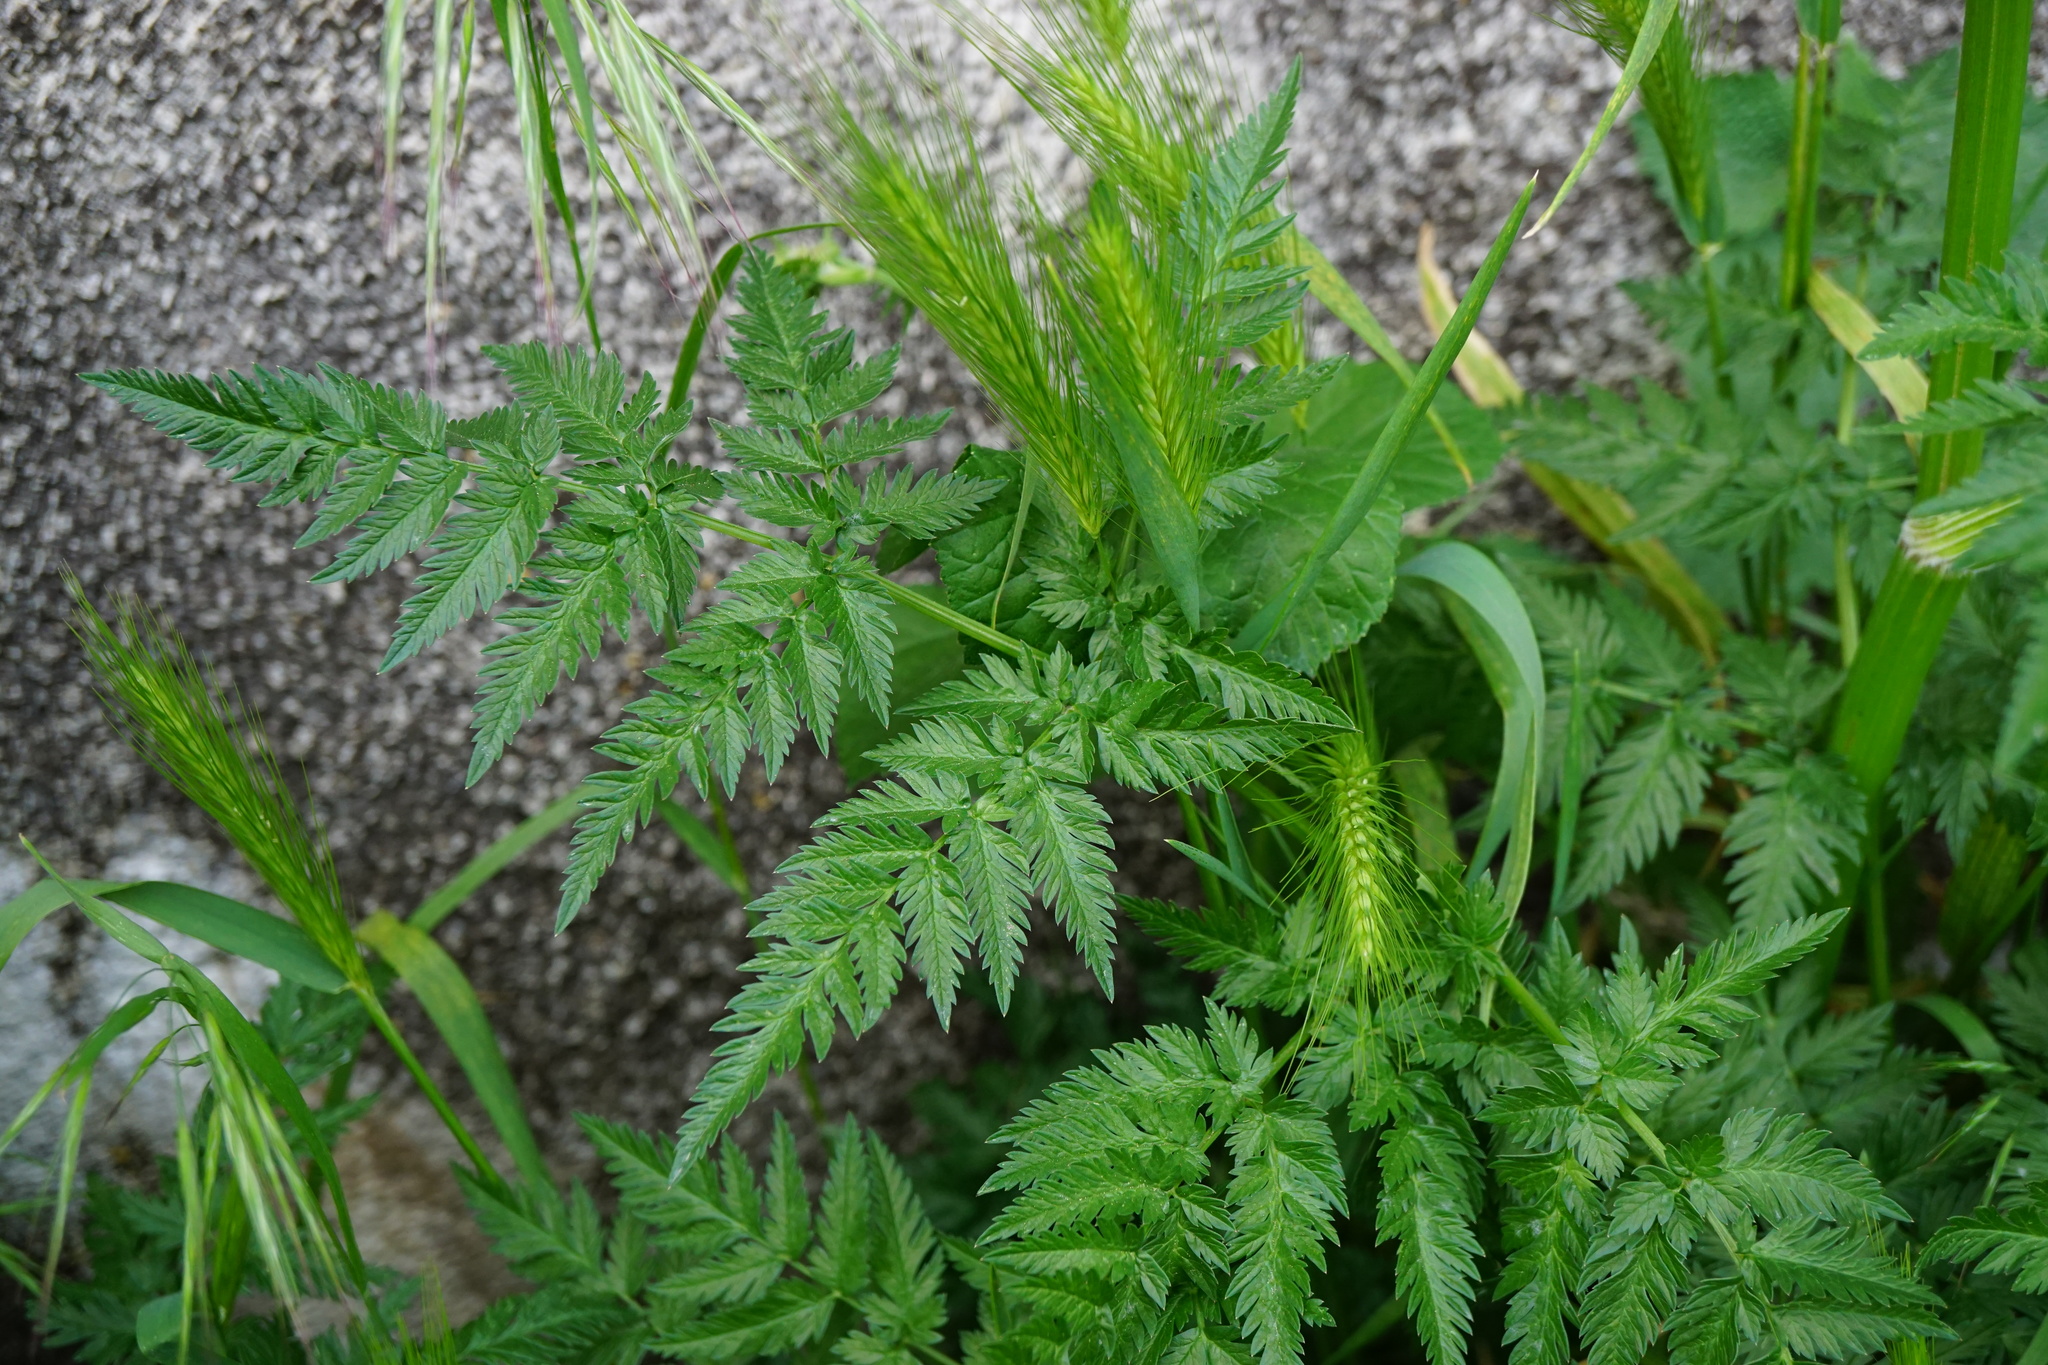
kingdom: Plantae
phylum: Tracheophyta
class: Magnoliopsida
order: Apiales
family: Apiaceae
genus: Anthriscus
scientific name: Anthriscus sylvestris
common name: Cow parsley
